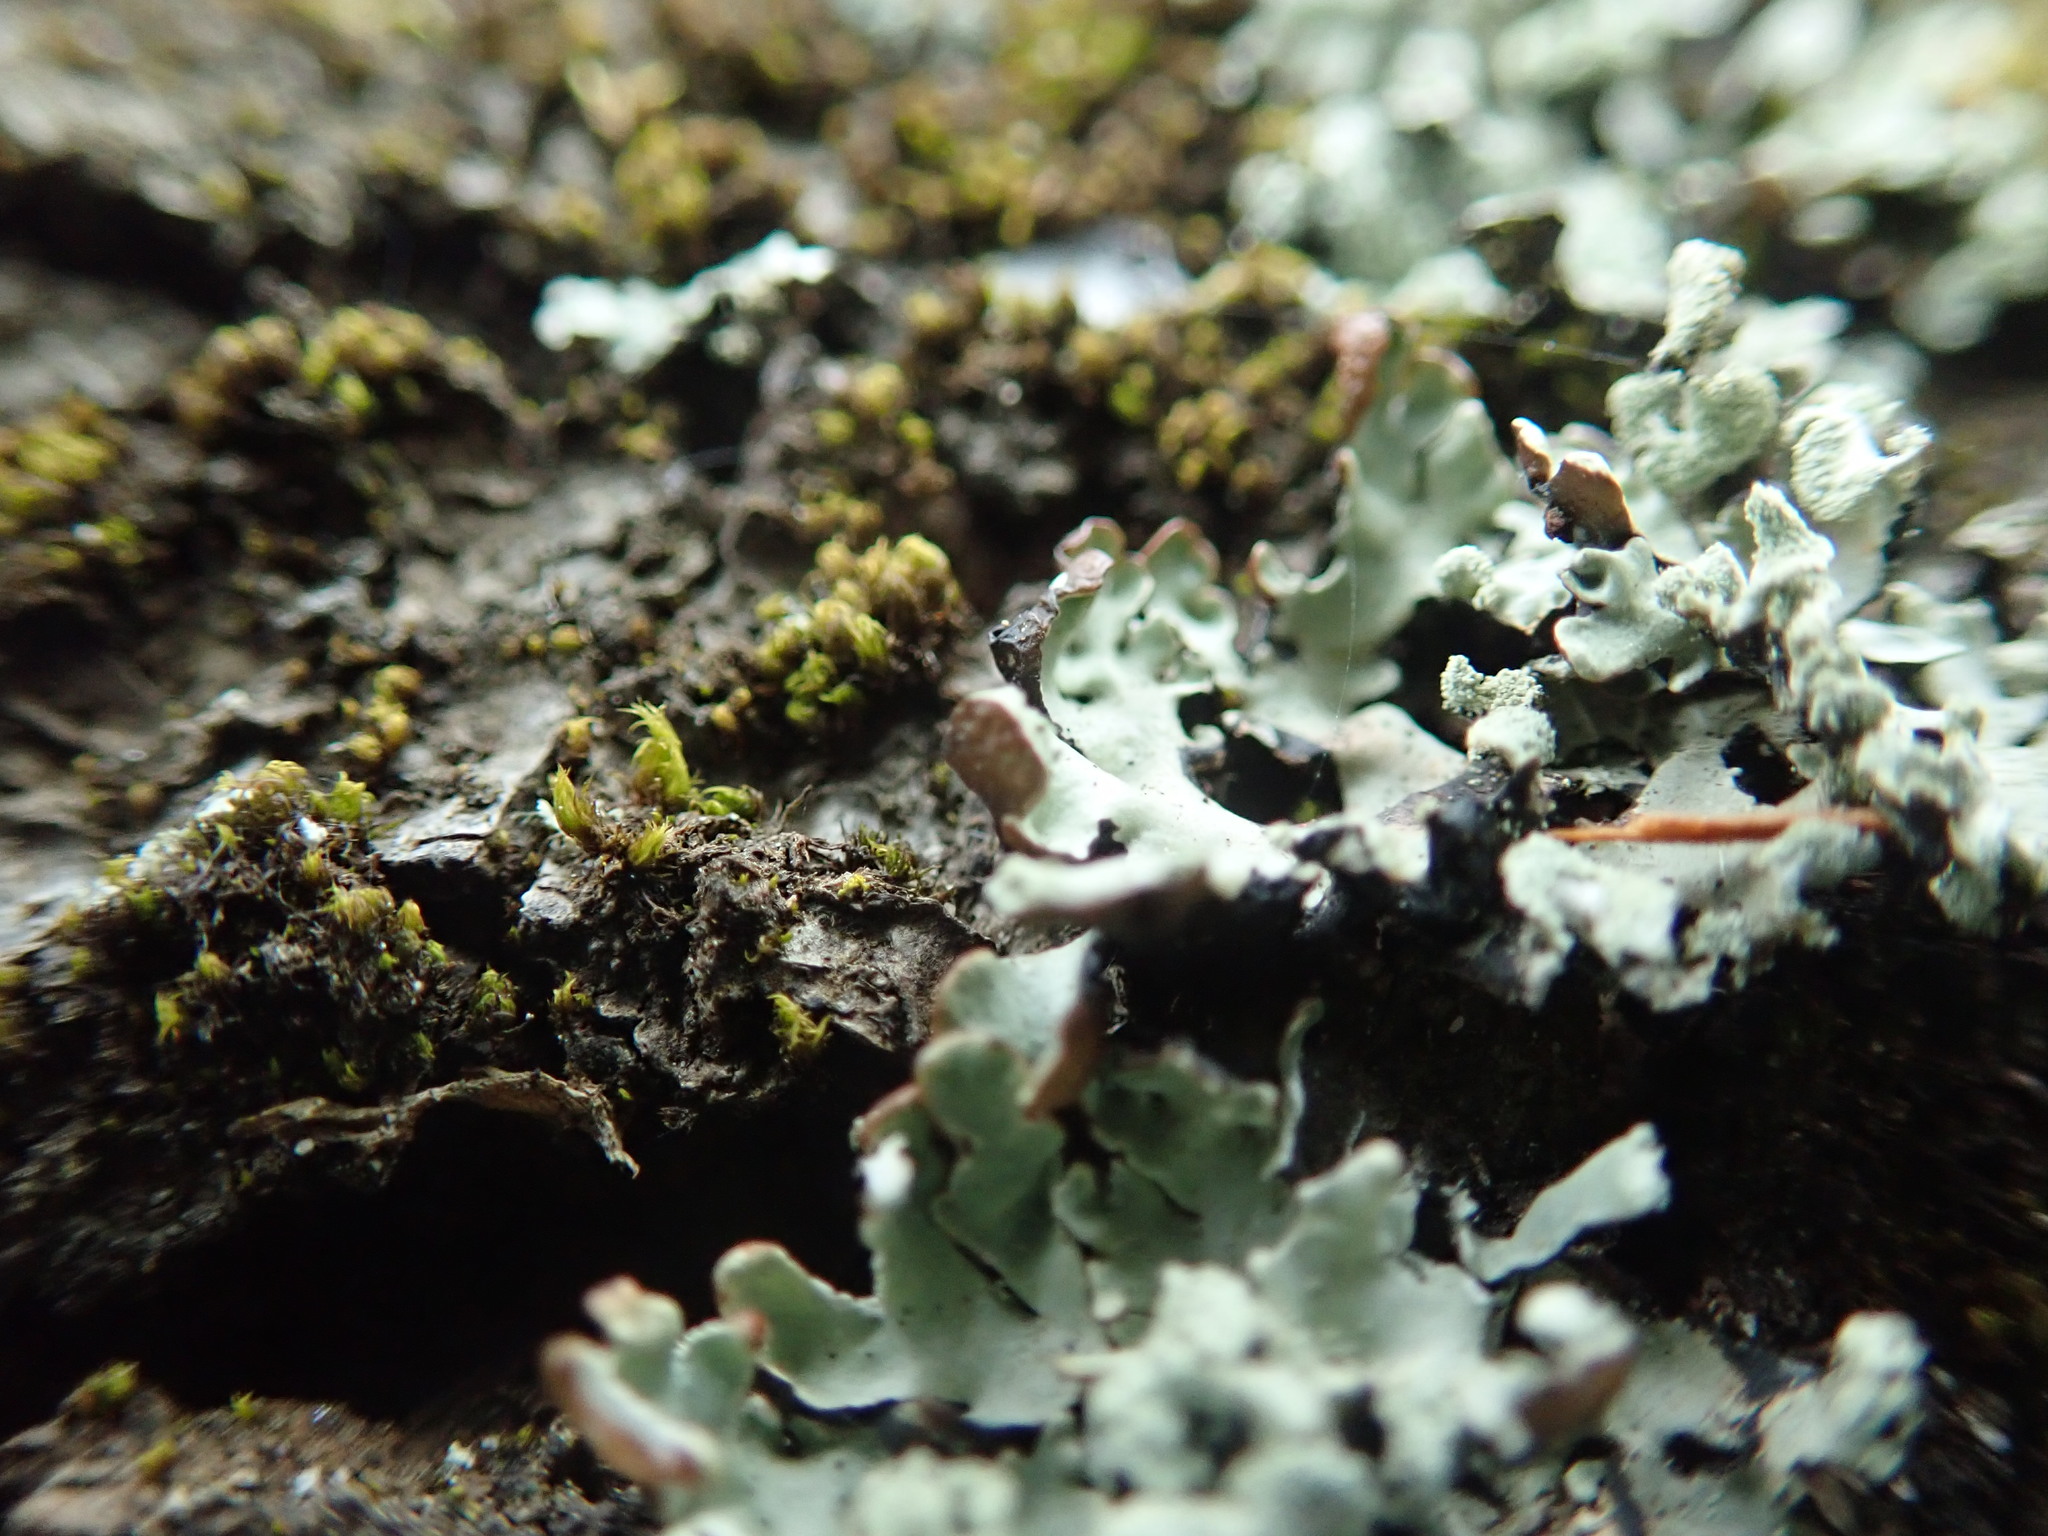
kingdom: Fungi
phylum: Ascomycota
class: Lecanoromycetes
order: Lecanorales
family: Parmeliaceae
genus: Hypogymnia
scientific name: Hypogymnia physodes
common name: Dark crottle
